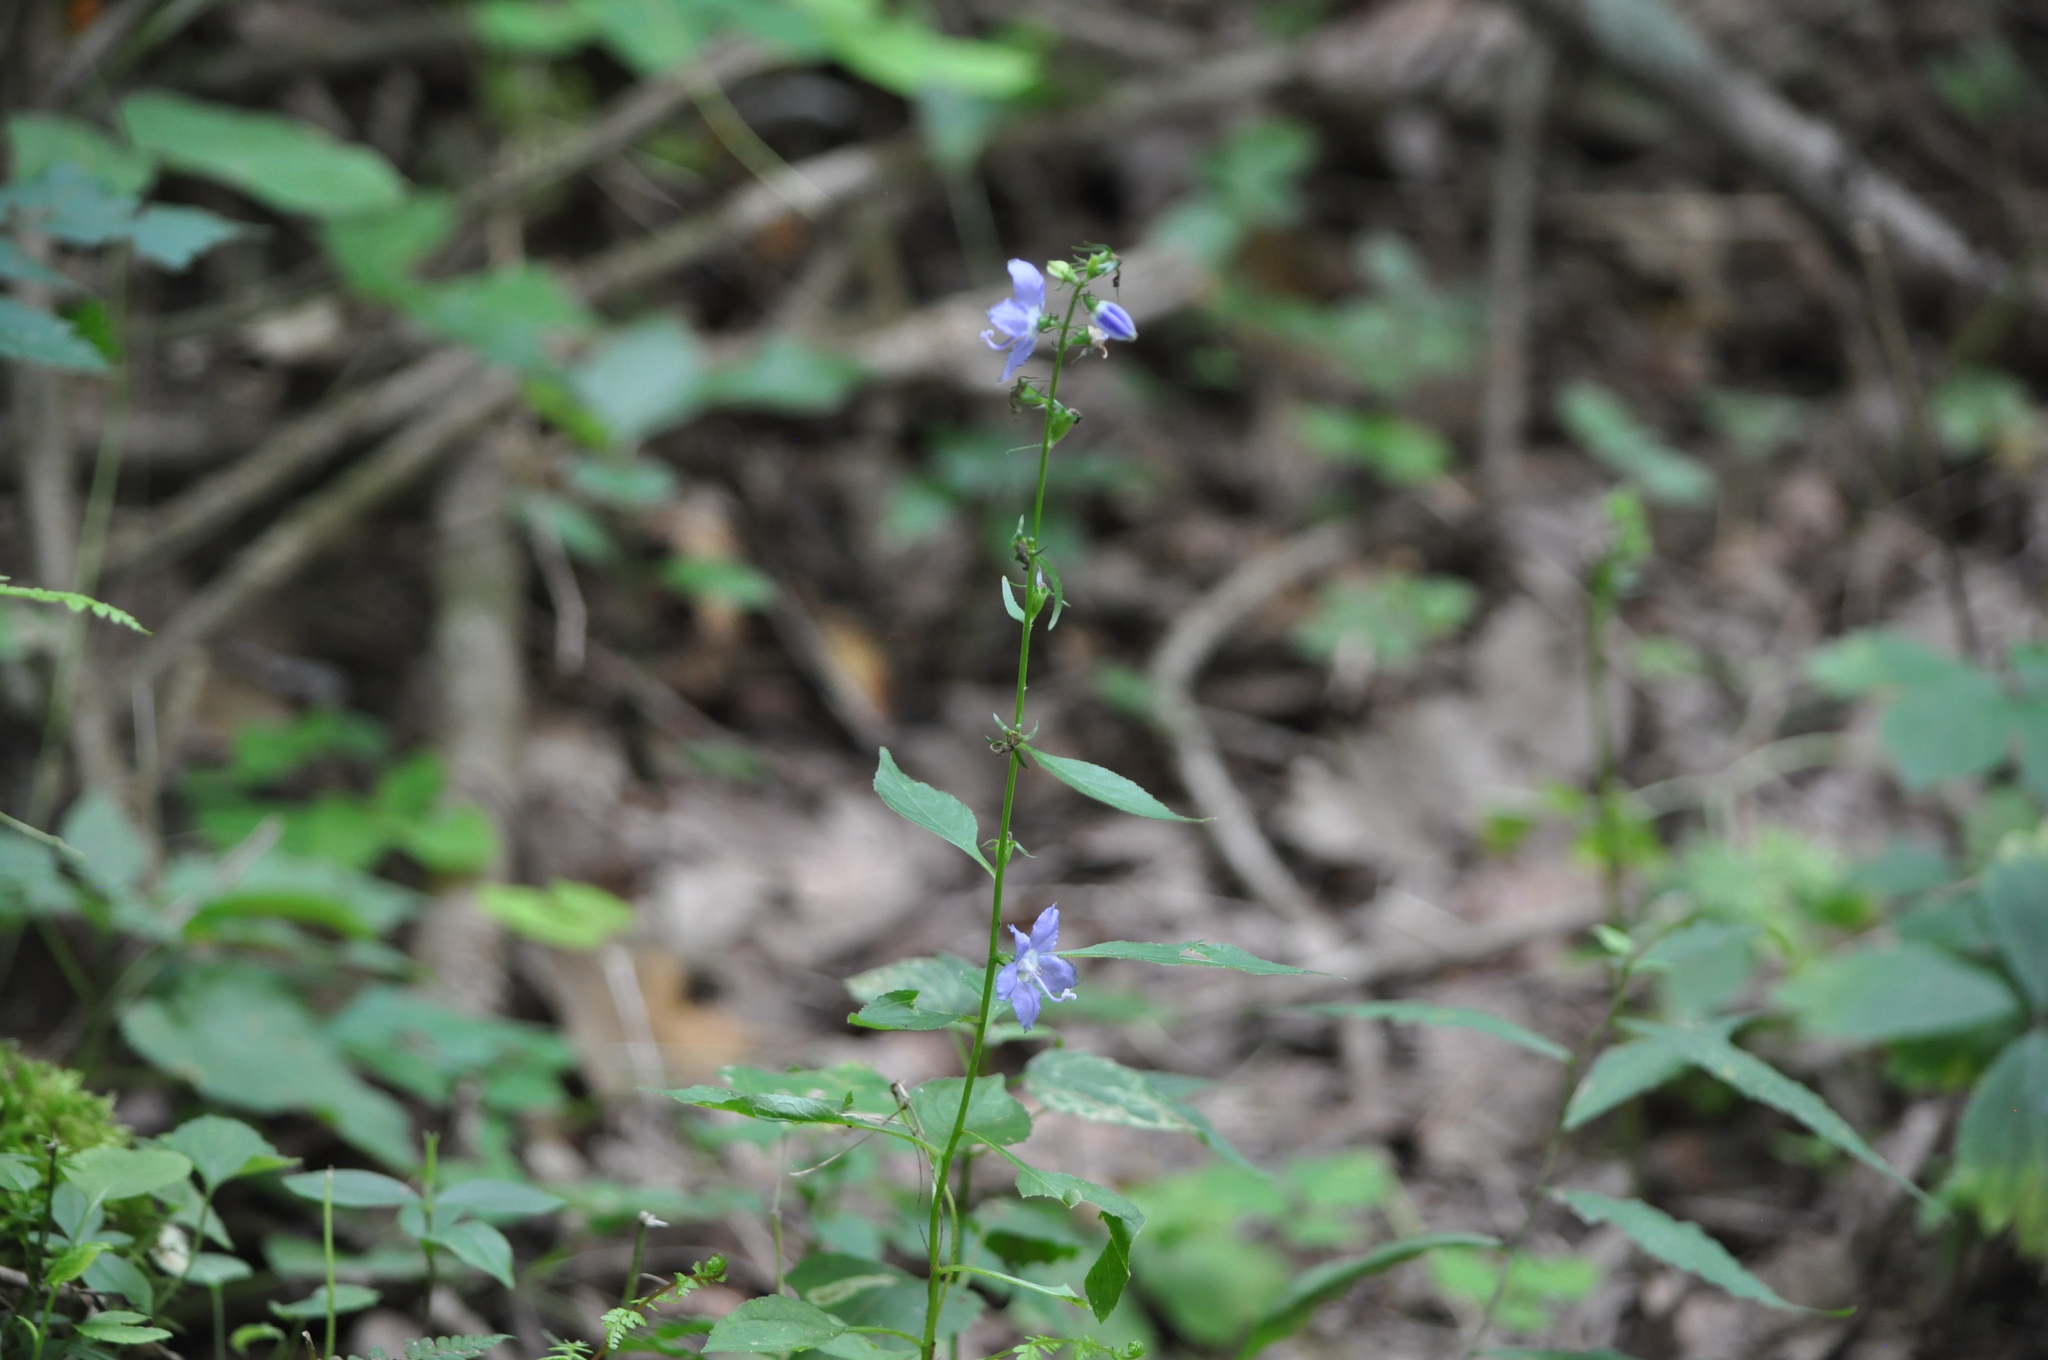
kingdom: Plantae
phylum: Tracheophyta
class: Magnoliopsida
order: Asterales
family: Campanulaceae
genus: Campanulastrum
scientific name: Campanulastrum americanum
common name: American bellflower
